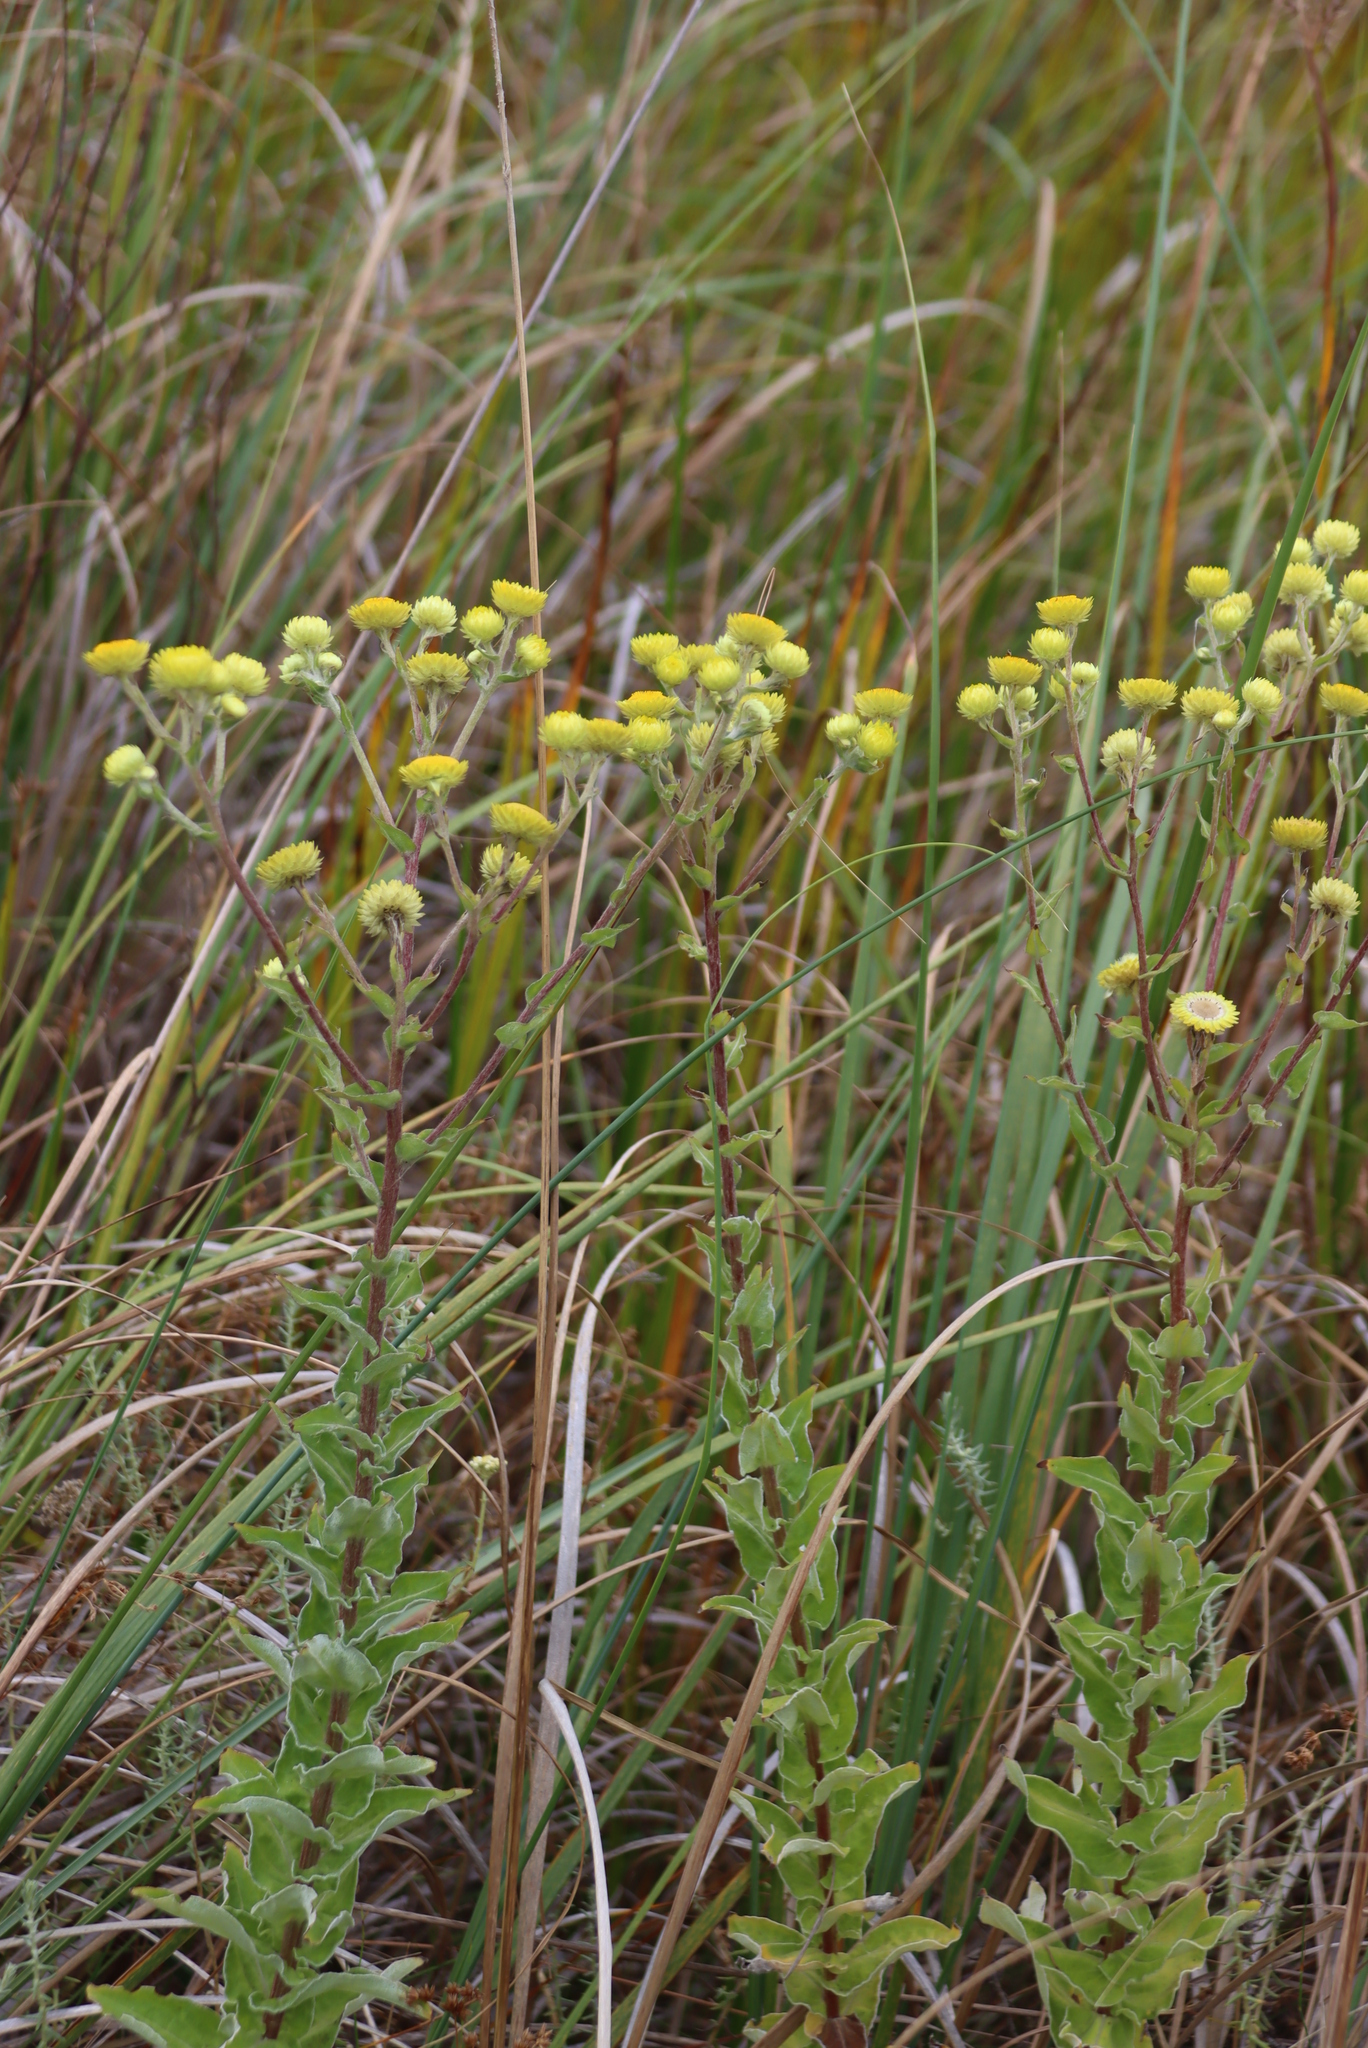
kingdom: Plantae
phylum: Tracheophyta
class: Magnoliopsida
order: Asterales
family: Asteraceae
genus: Helichrysum
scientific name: Helichrysum foetidum
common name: Stinking everlasting
